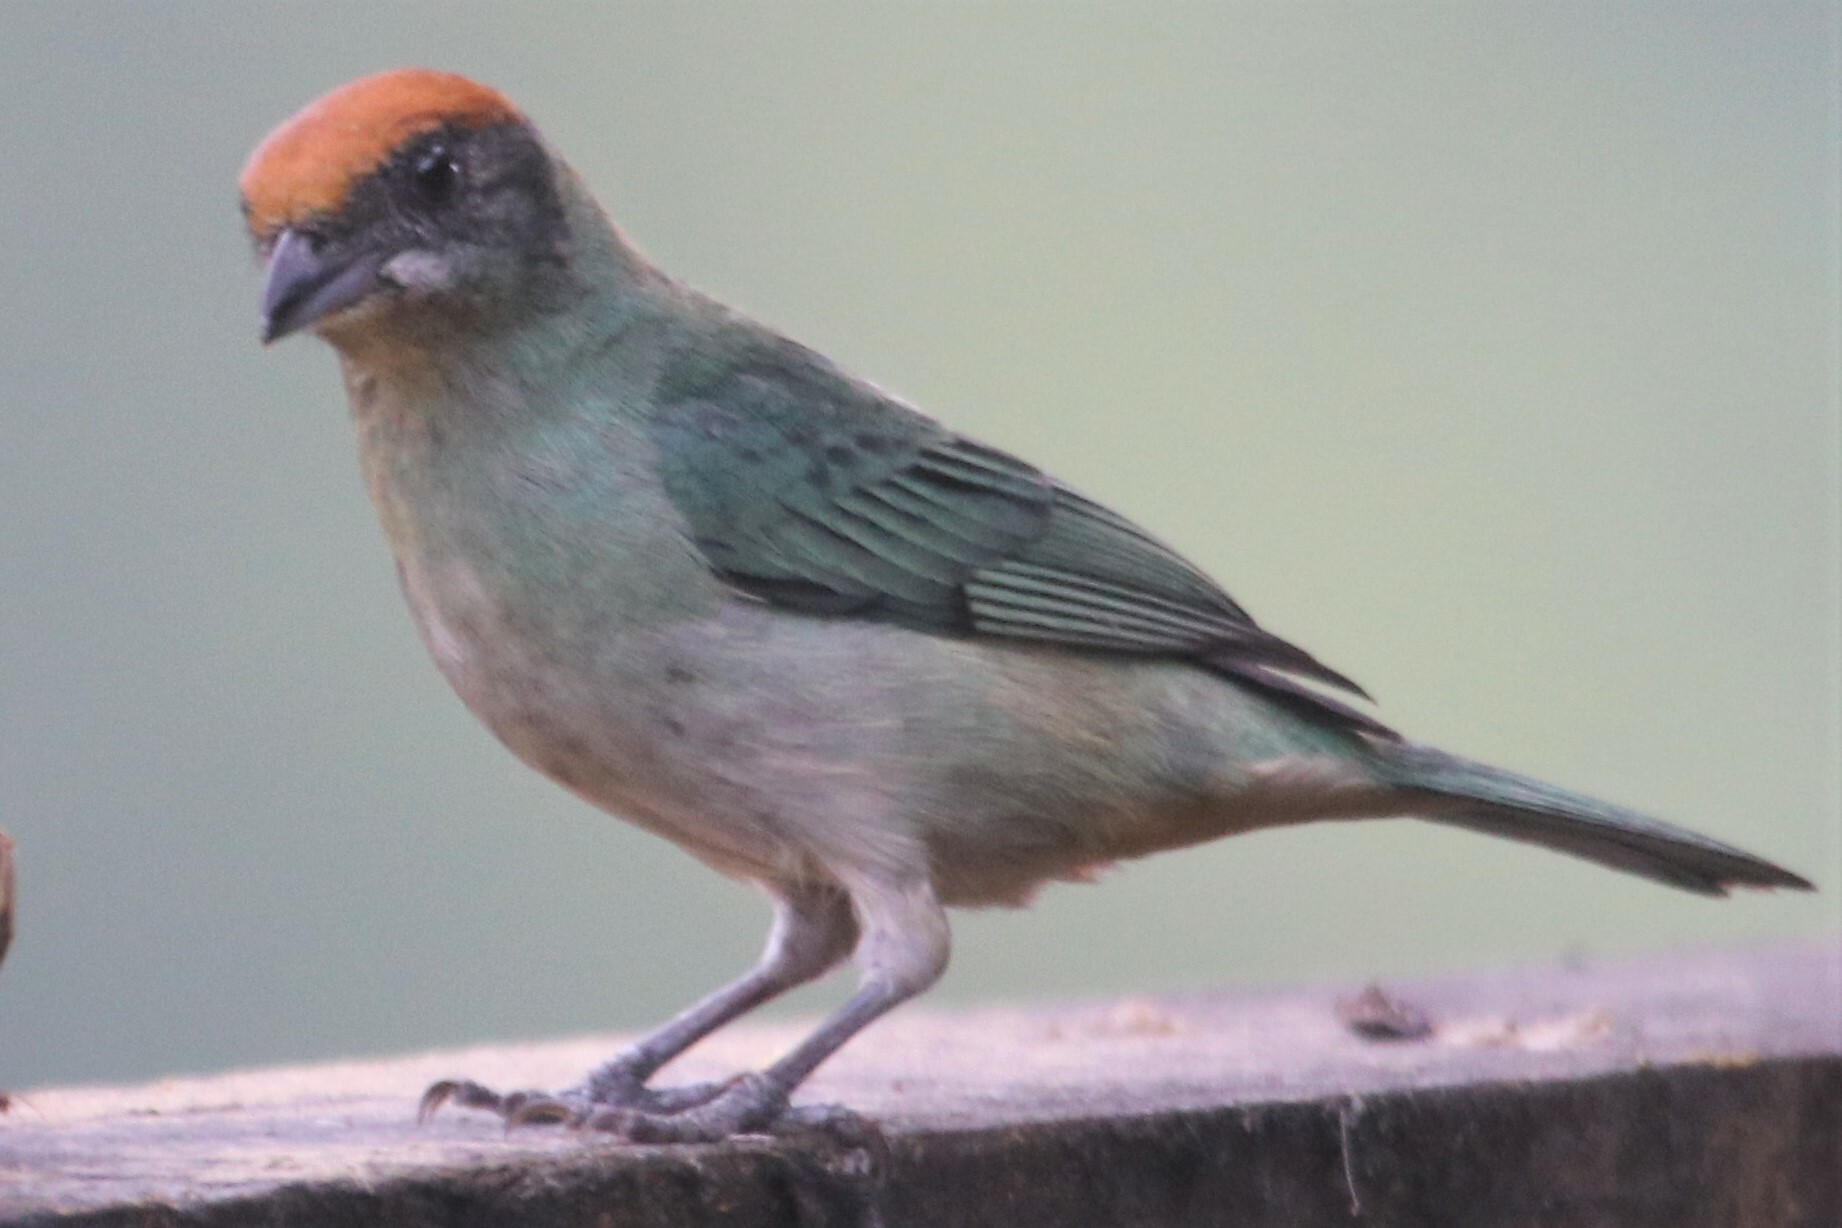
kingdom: Animalia
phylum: Chordata
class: Aves
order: Passeriformes
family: Thraupidae
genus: Stilpnia
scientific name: Stilpnia vitriolina
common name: Scrub tanager
